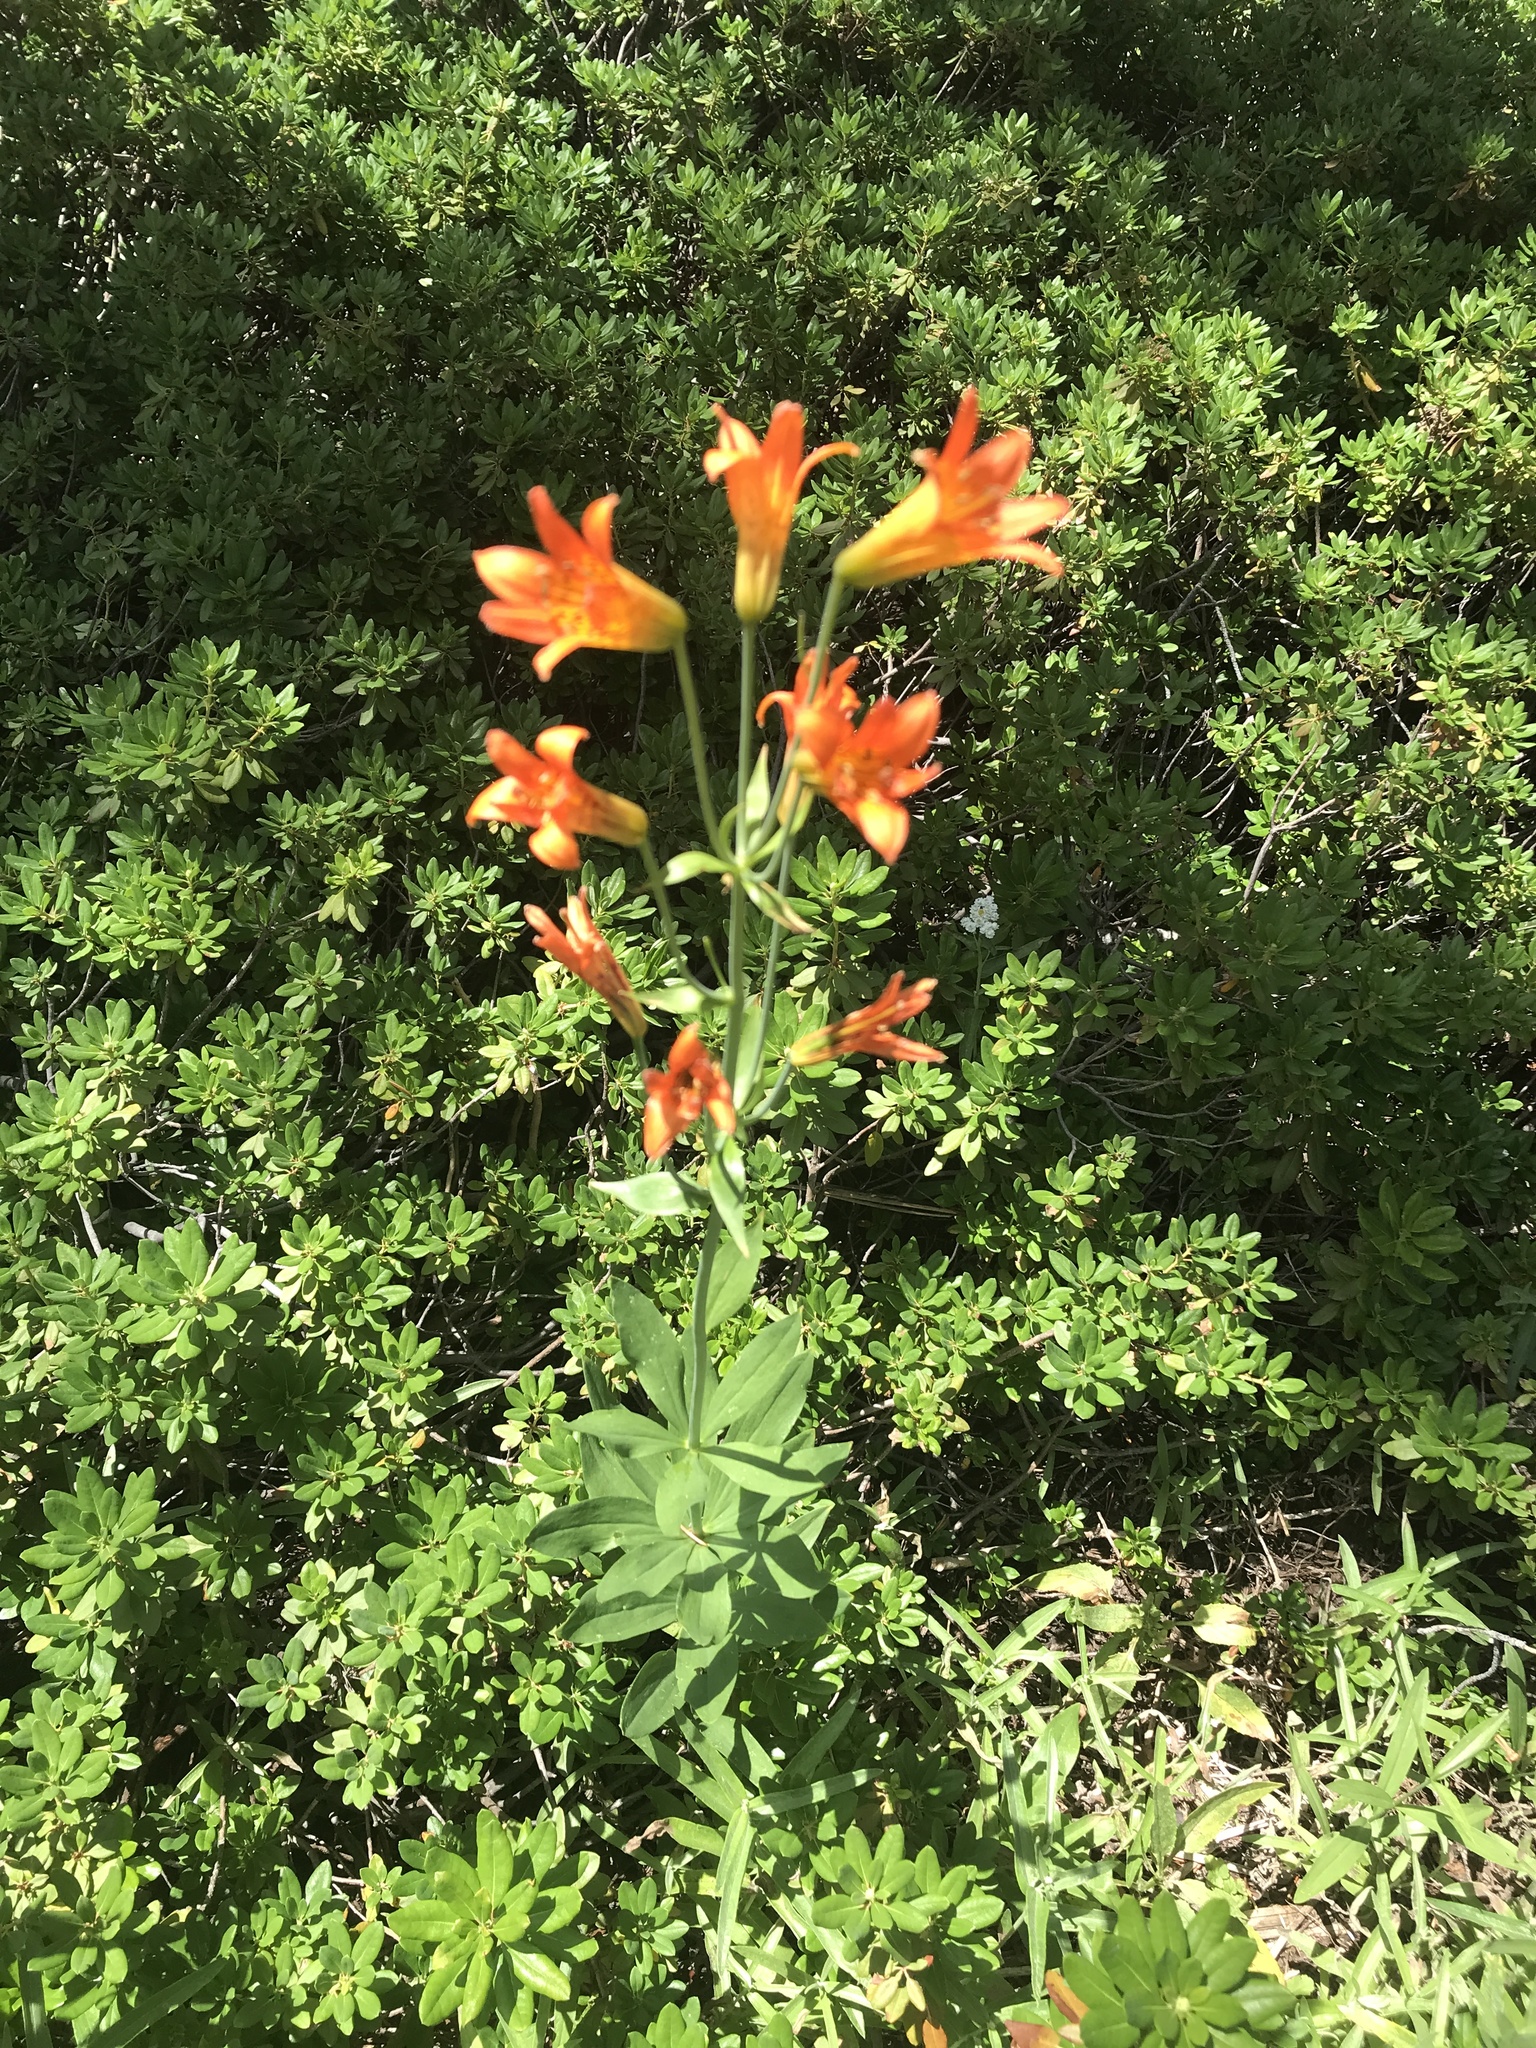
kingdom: Plantae
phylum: Tracheophyta
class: Liliopsida
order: Liliales
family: Liliaceae
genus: Lilium
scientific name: Lilium parvum
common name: Alpine lily
